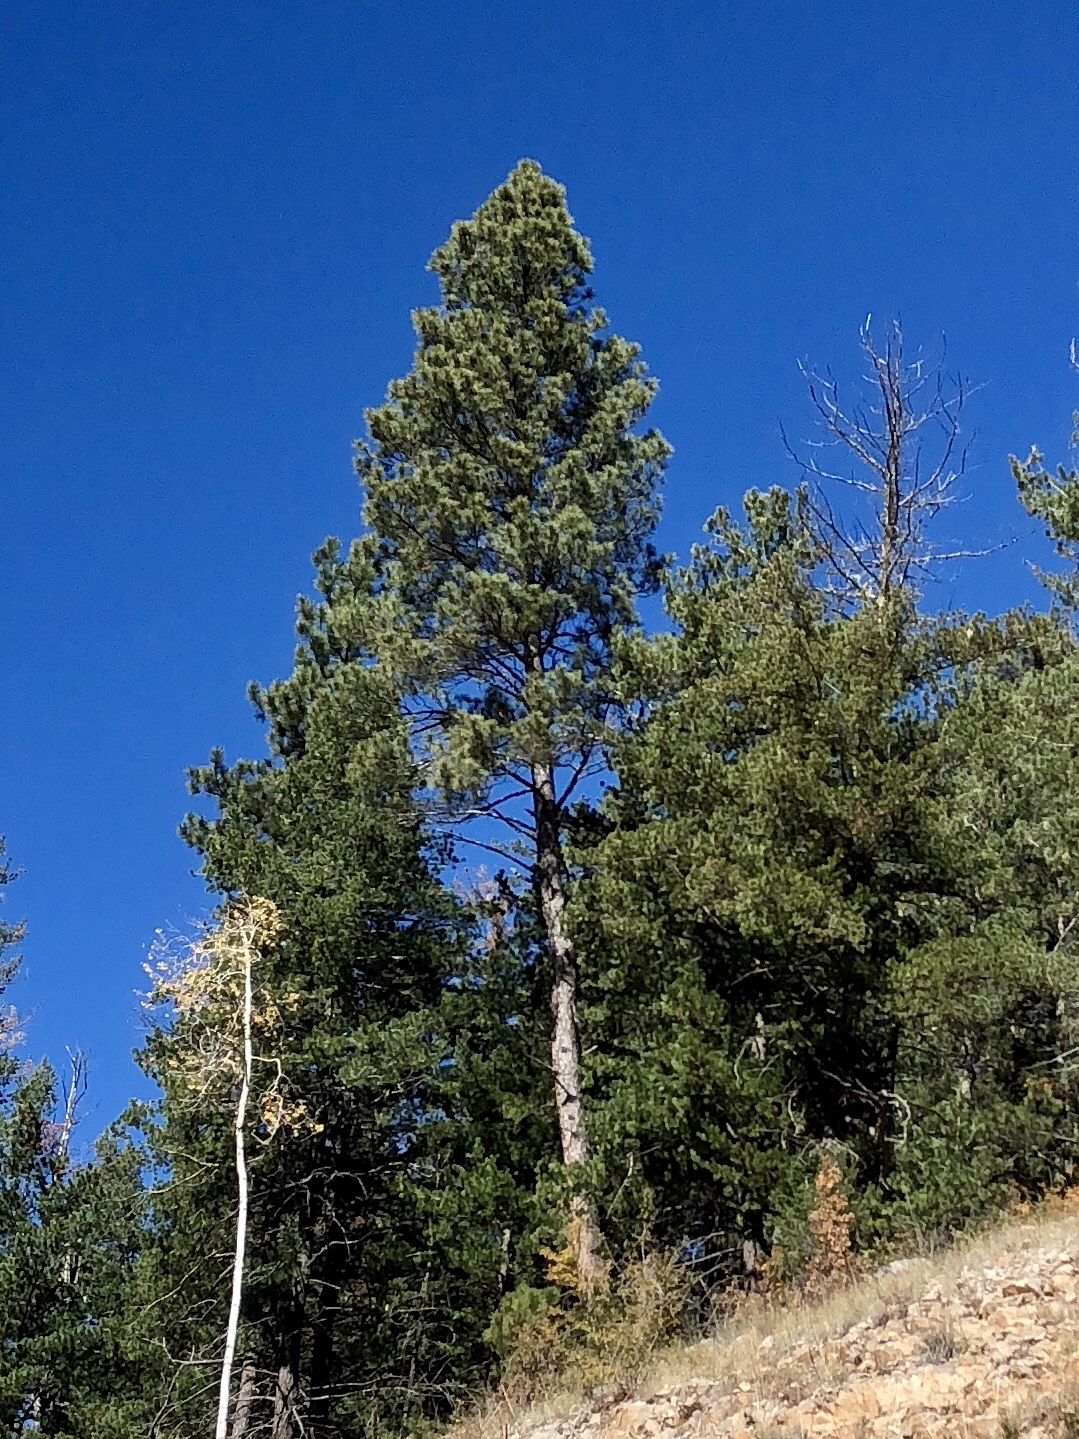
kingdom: Plantae
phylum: Tracheophyta
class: Pinopsida
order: Pinales
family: Pinaceae
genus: Pinus
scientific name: Pinus ponderosa
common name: Western yellow-pine
